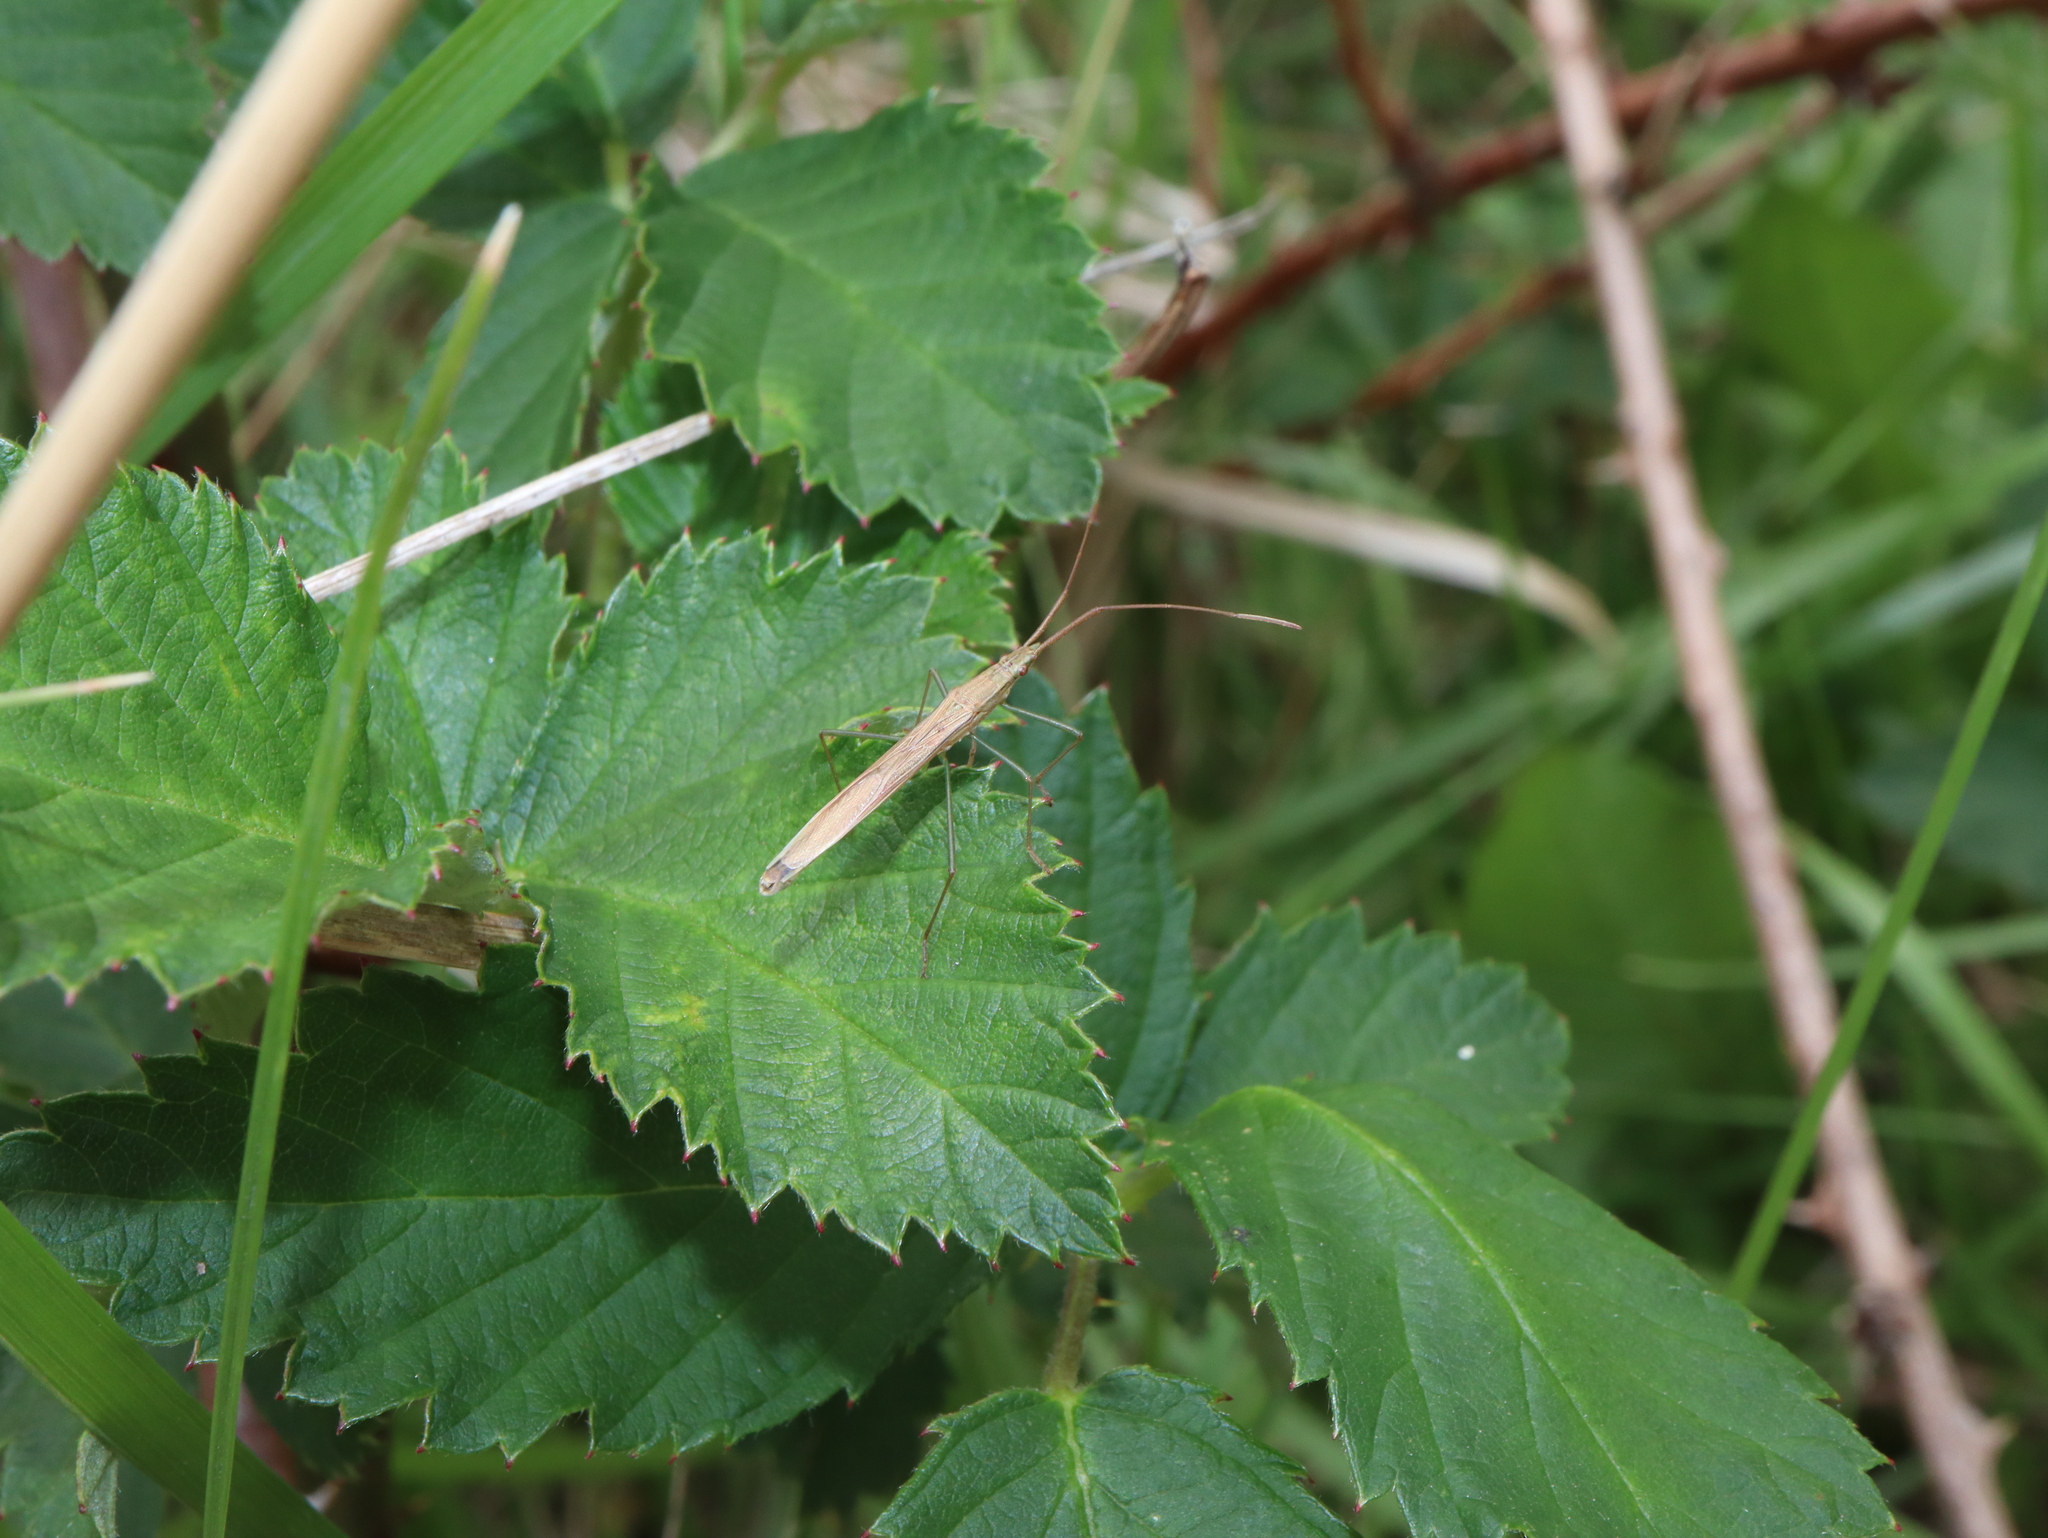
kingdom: Animalia
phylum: Arthropoda
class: Insecta
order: Hemiptera
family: Alydidae
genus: Mutusca
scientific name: Mutusca brevicornis
